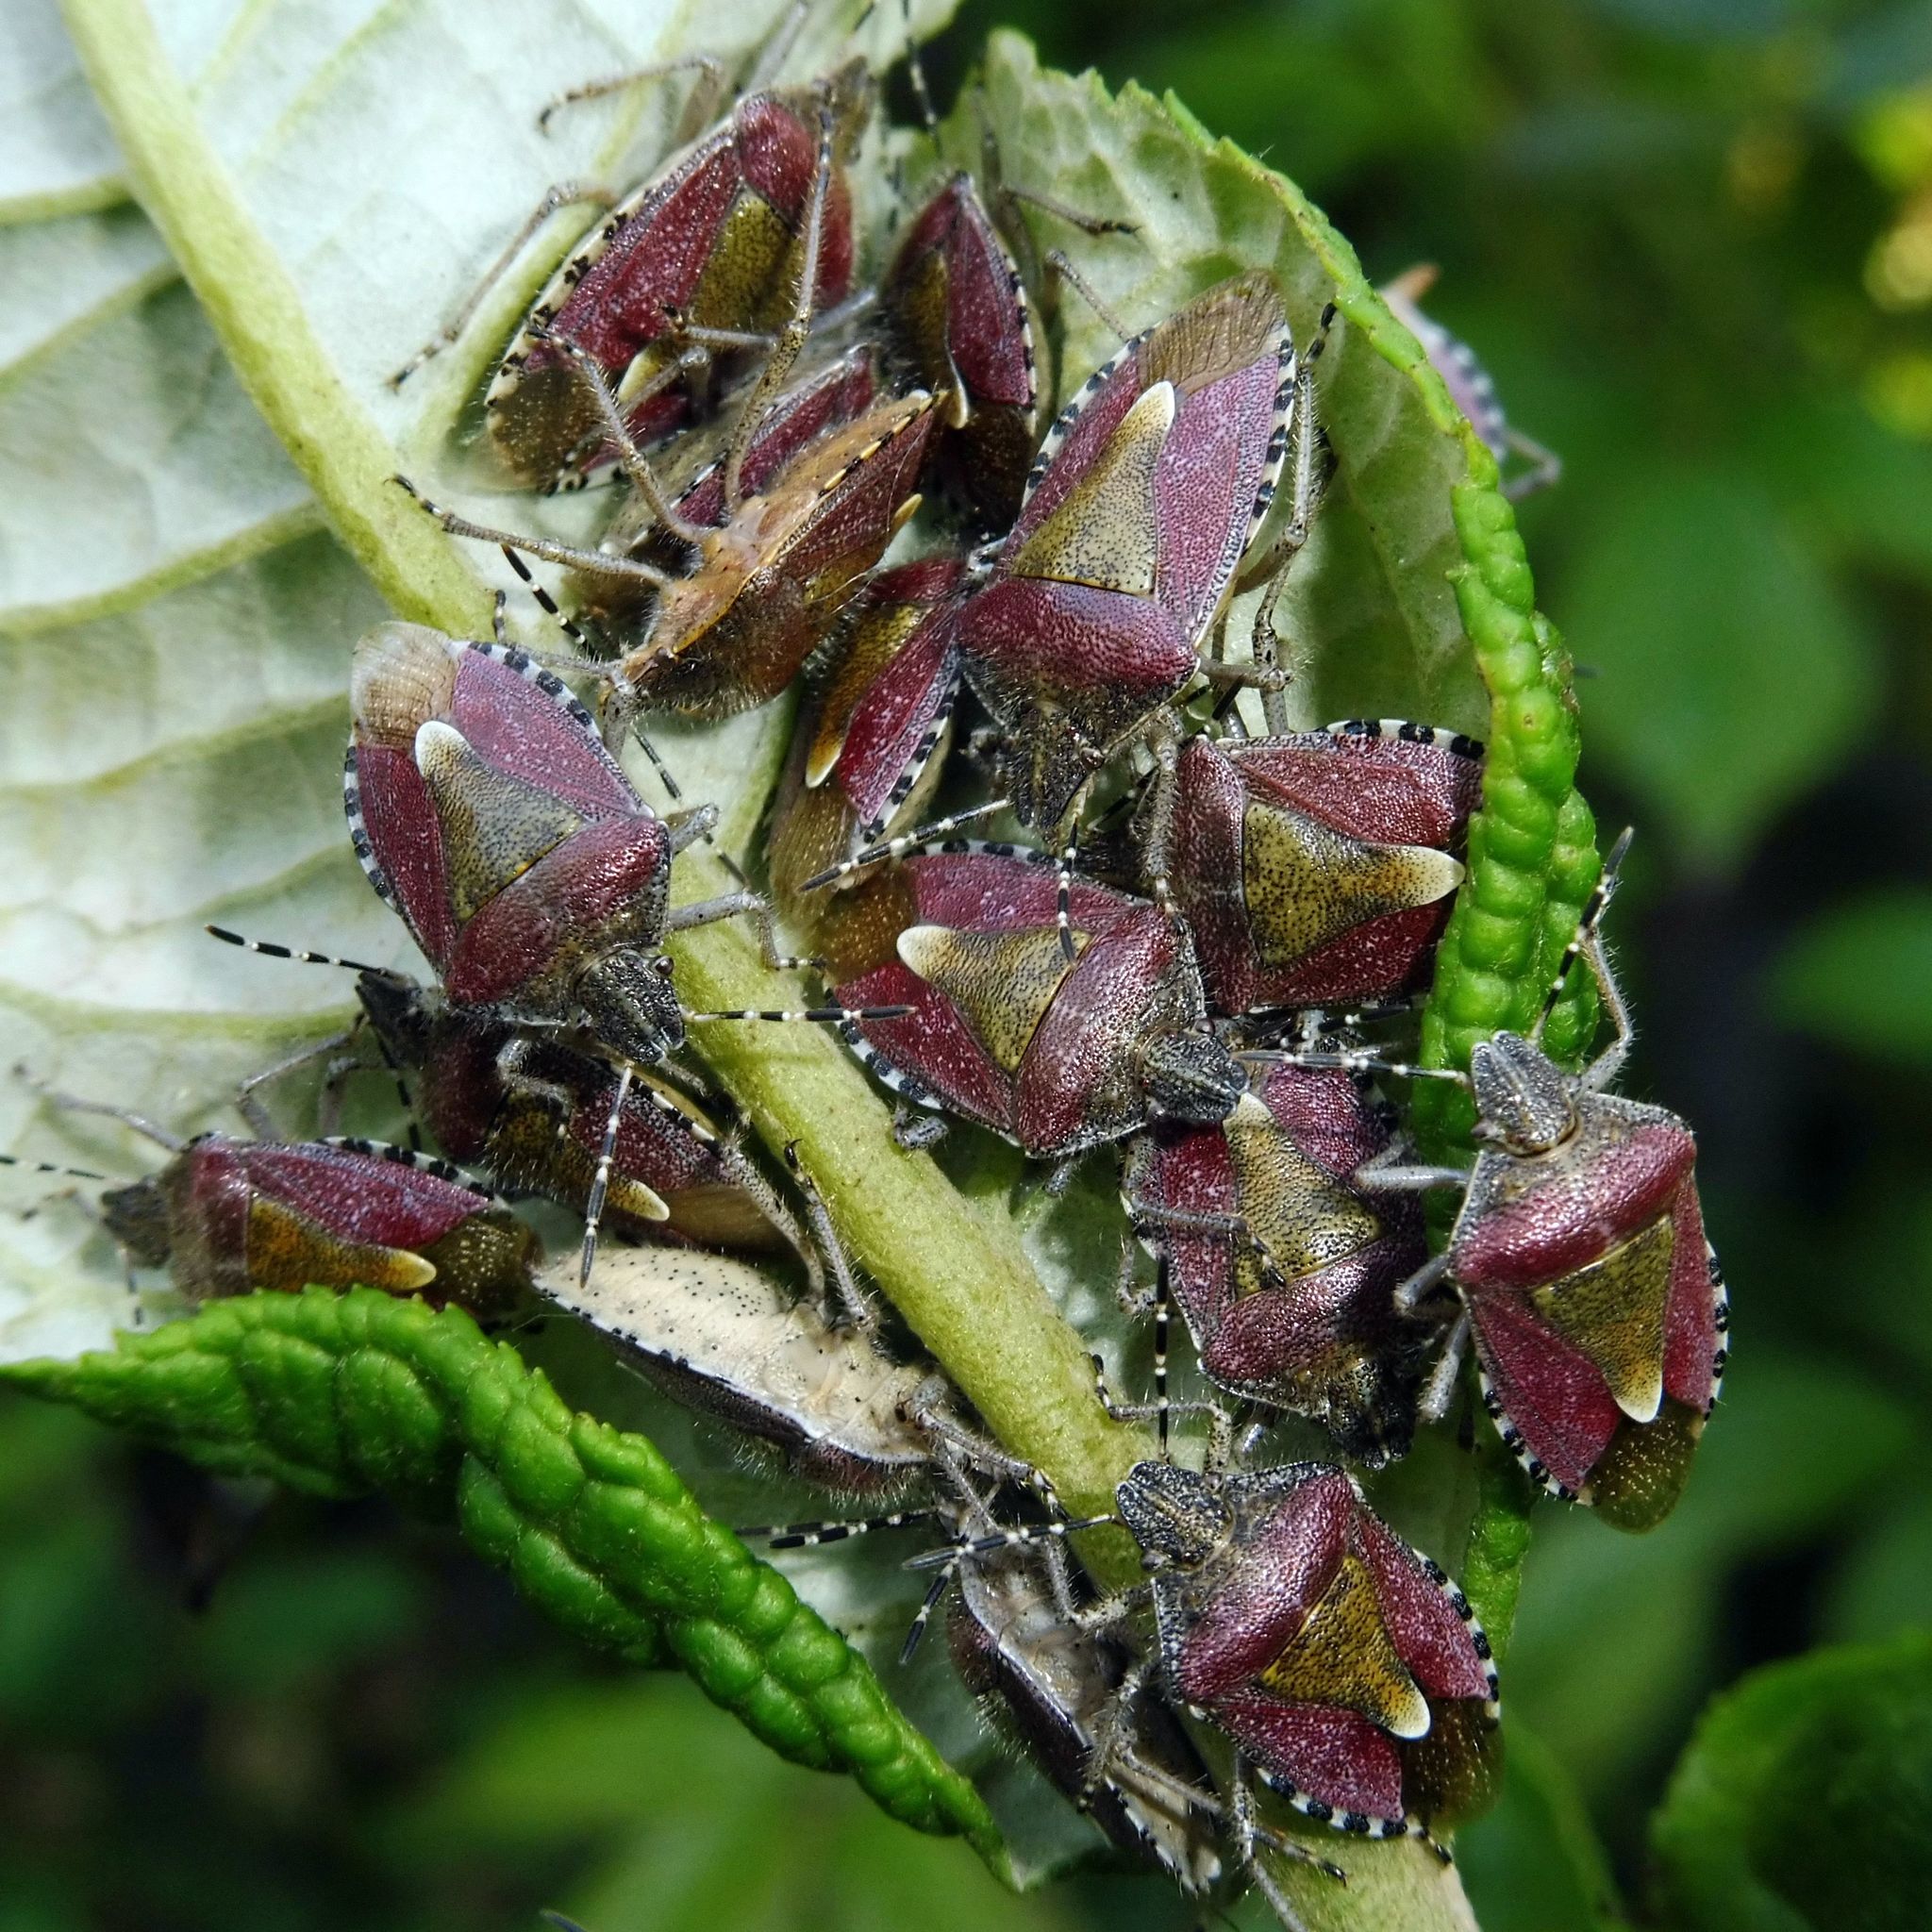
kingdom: Animalia
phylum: Arthropoda
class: Insecta
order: Hemiptera
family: Pentatomidae
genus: Dolycoris
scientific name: Dolycoris baccarum
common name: Sloe bug
